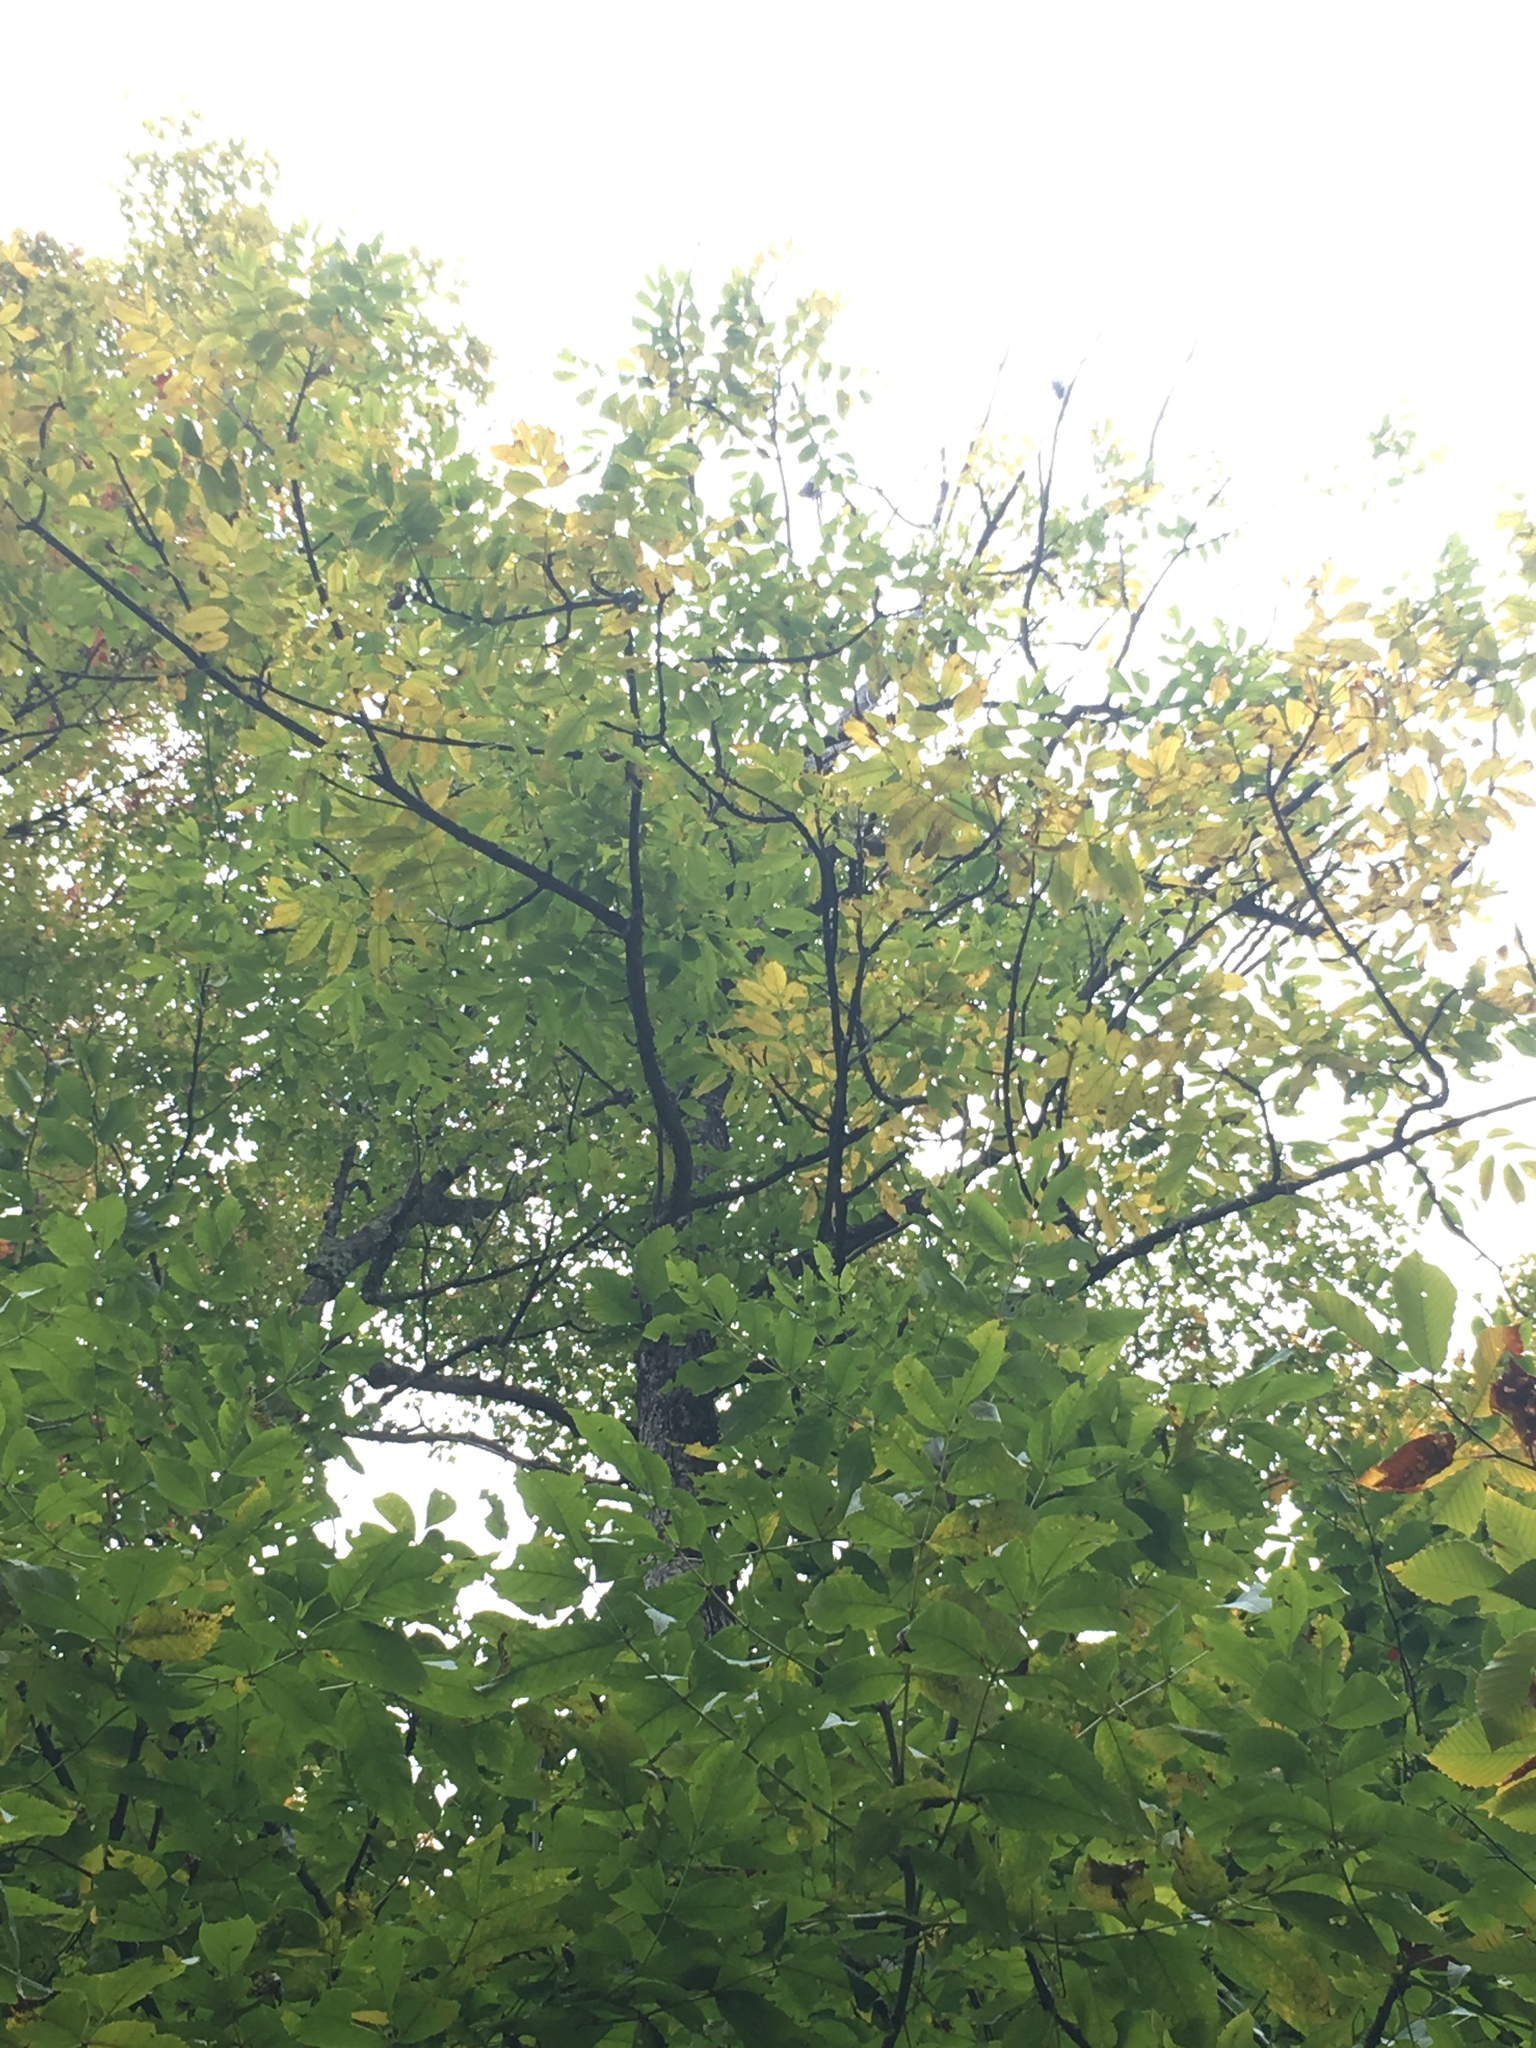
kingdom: Plantae
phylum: Tracheophyta
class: Magnoliopsida
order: Lamiales
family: Oleaceae
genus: Fraxinus
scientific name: Fraxinus nigra
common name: Black ash
